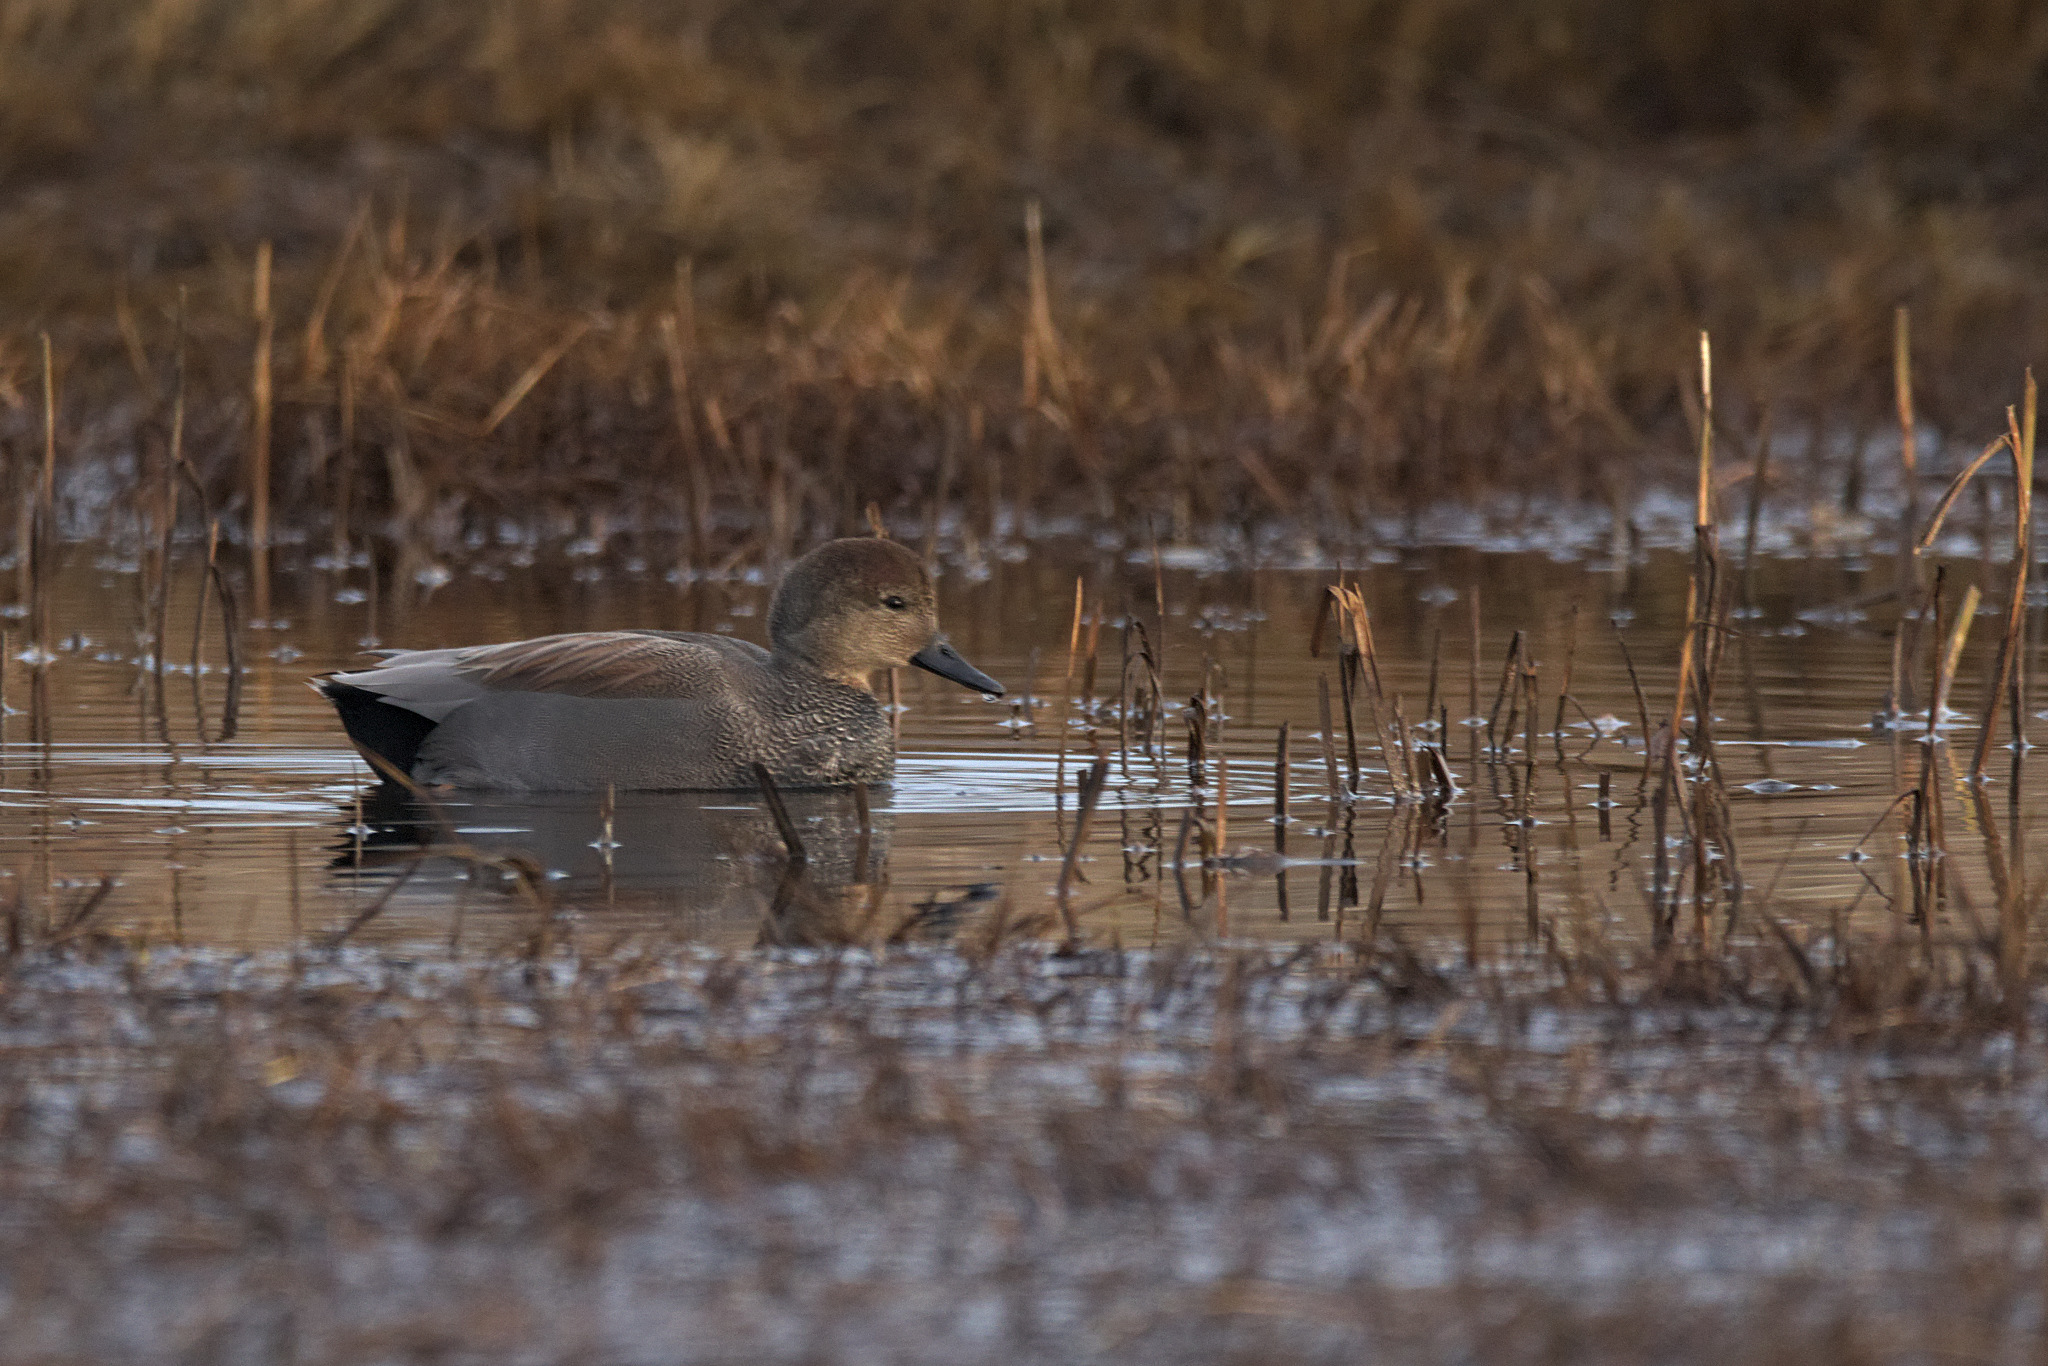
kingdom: Animalia
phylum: Chordata
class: Aves
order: Anseriformes
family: Anatidae
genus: Mareca
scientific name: Mareca strepera
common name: Gadwall
